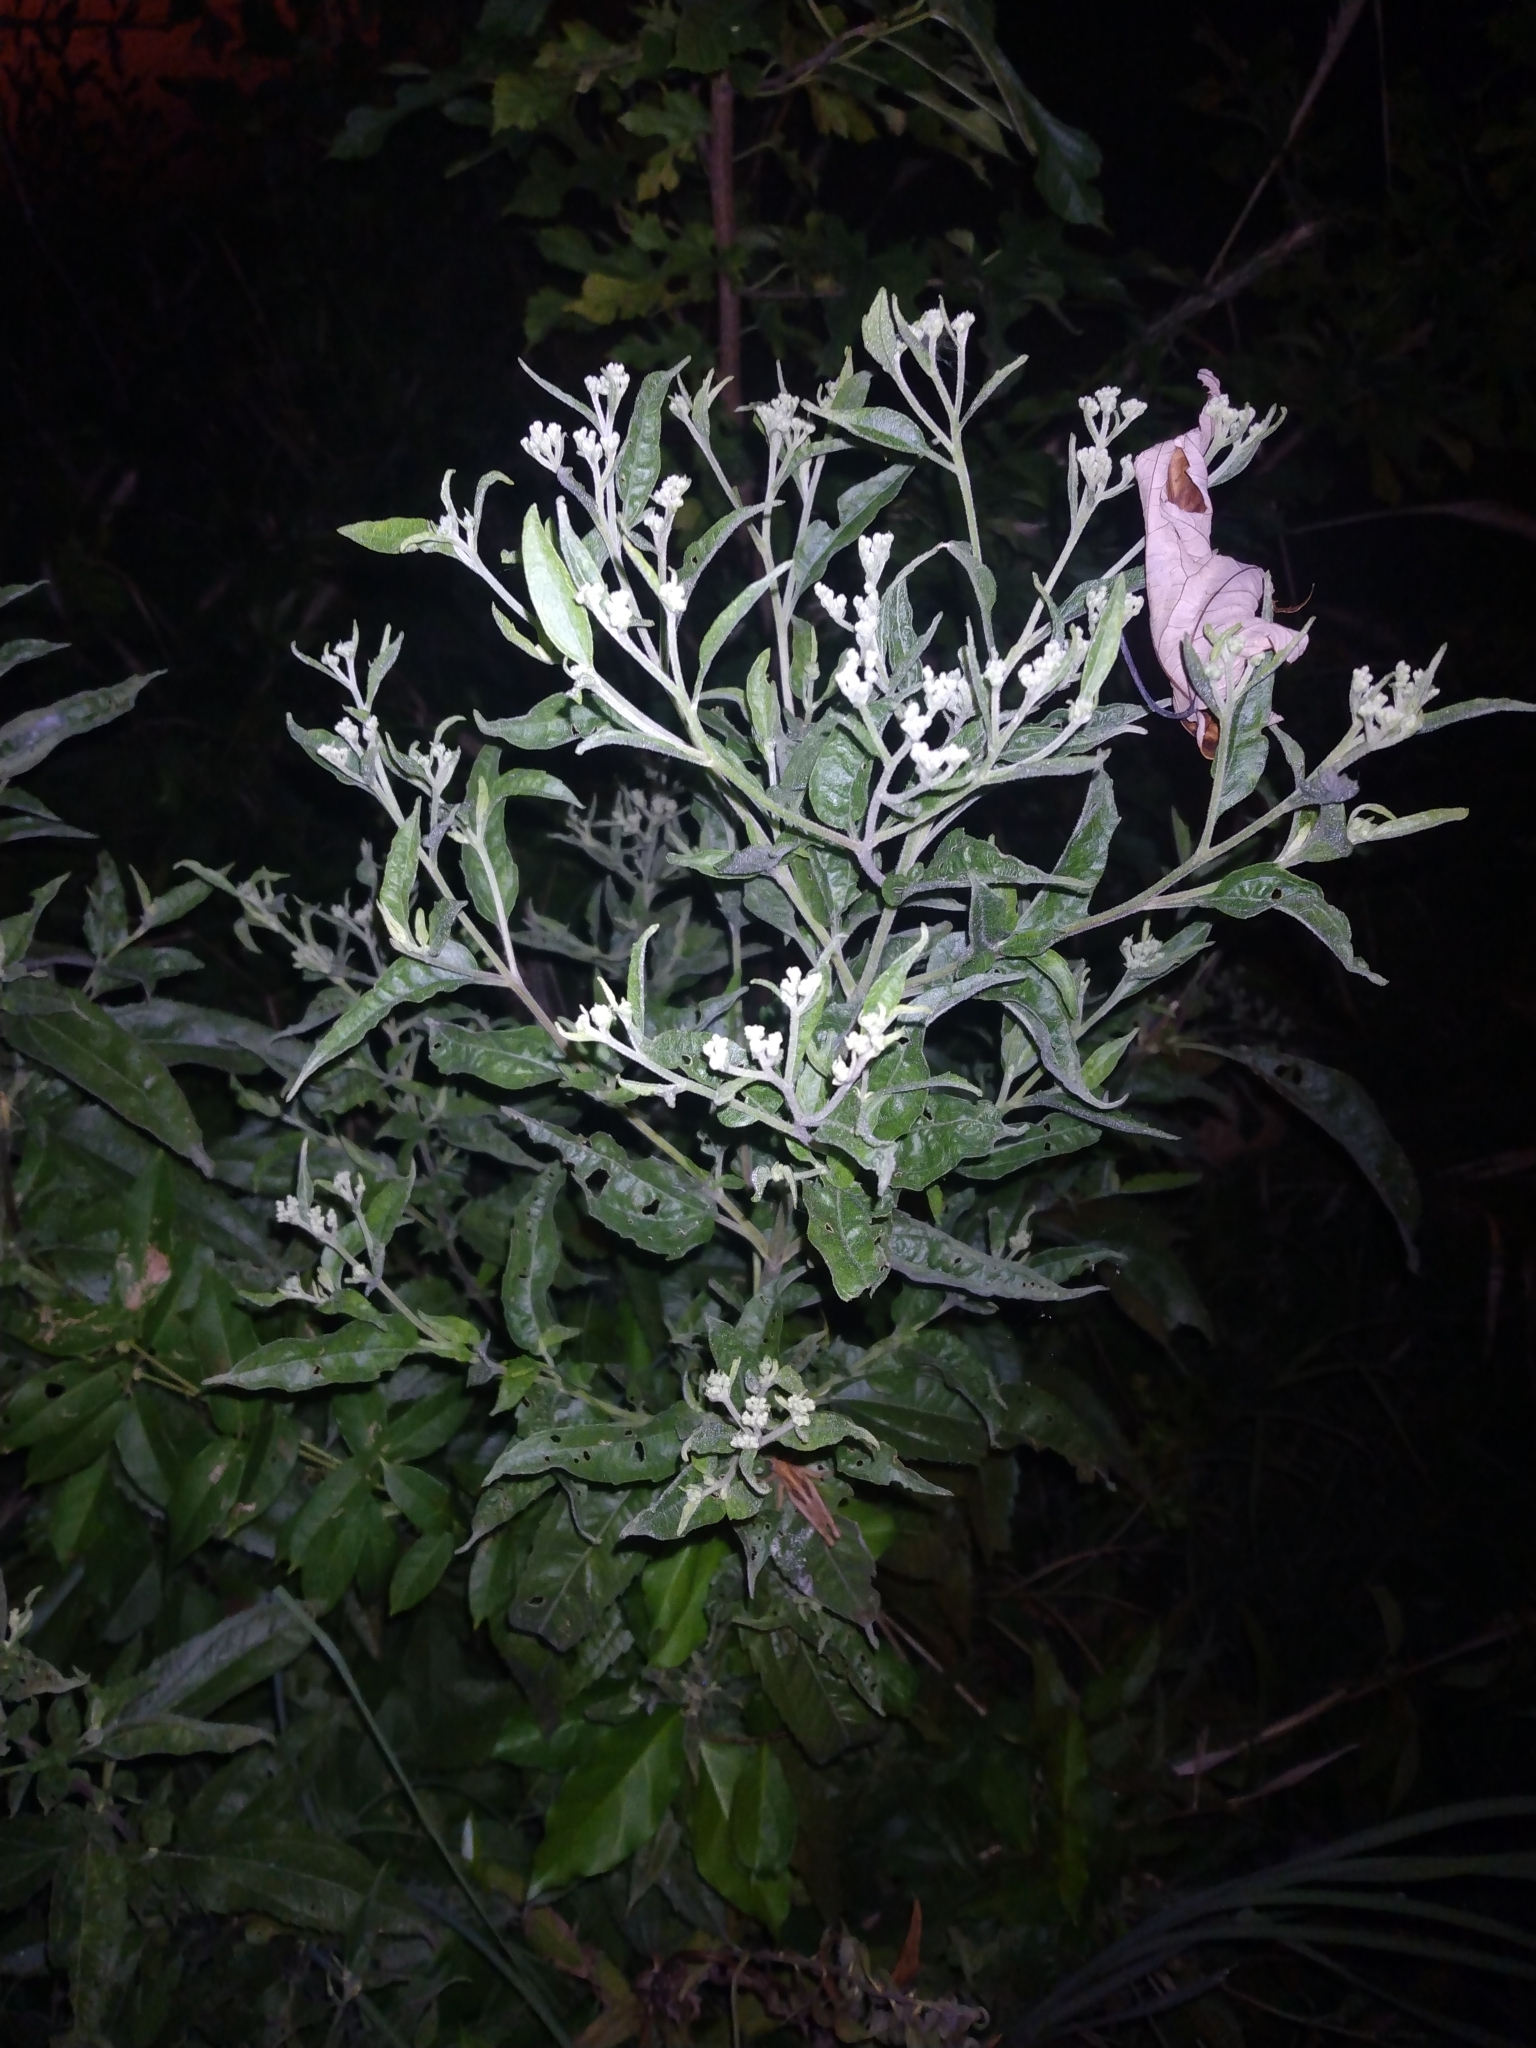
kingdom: Plantae
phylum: Tracheophyta
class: Magnoliopsida
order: Asterales
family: Asteraceae
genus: Eupatorium
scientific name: Eupatorium serotinum
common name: Late boneset
